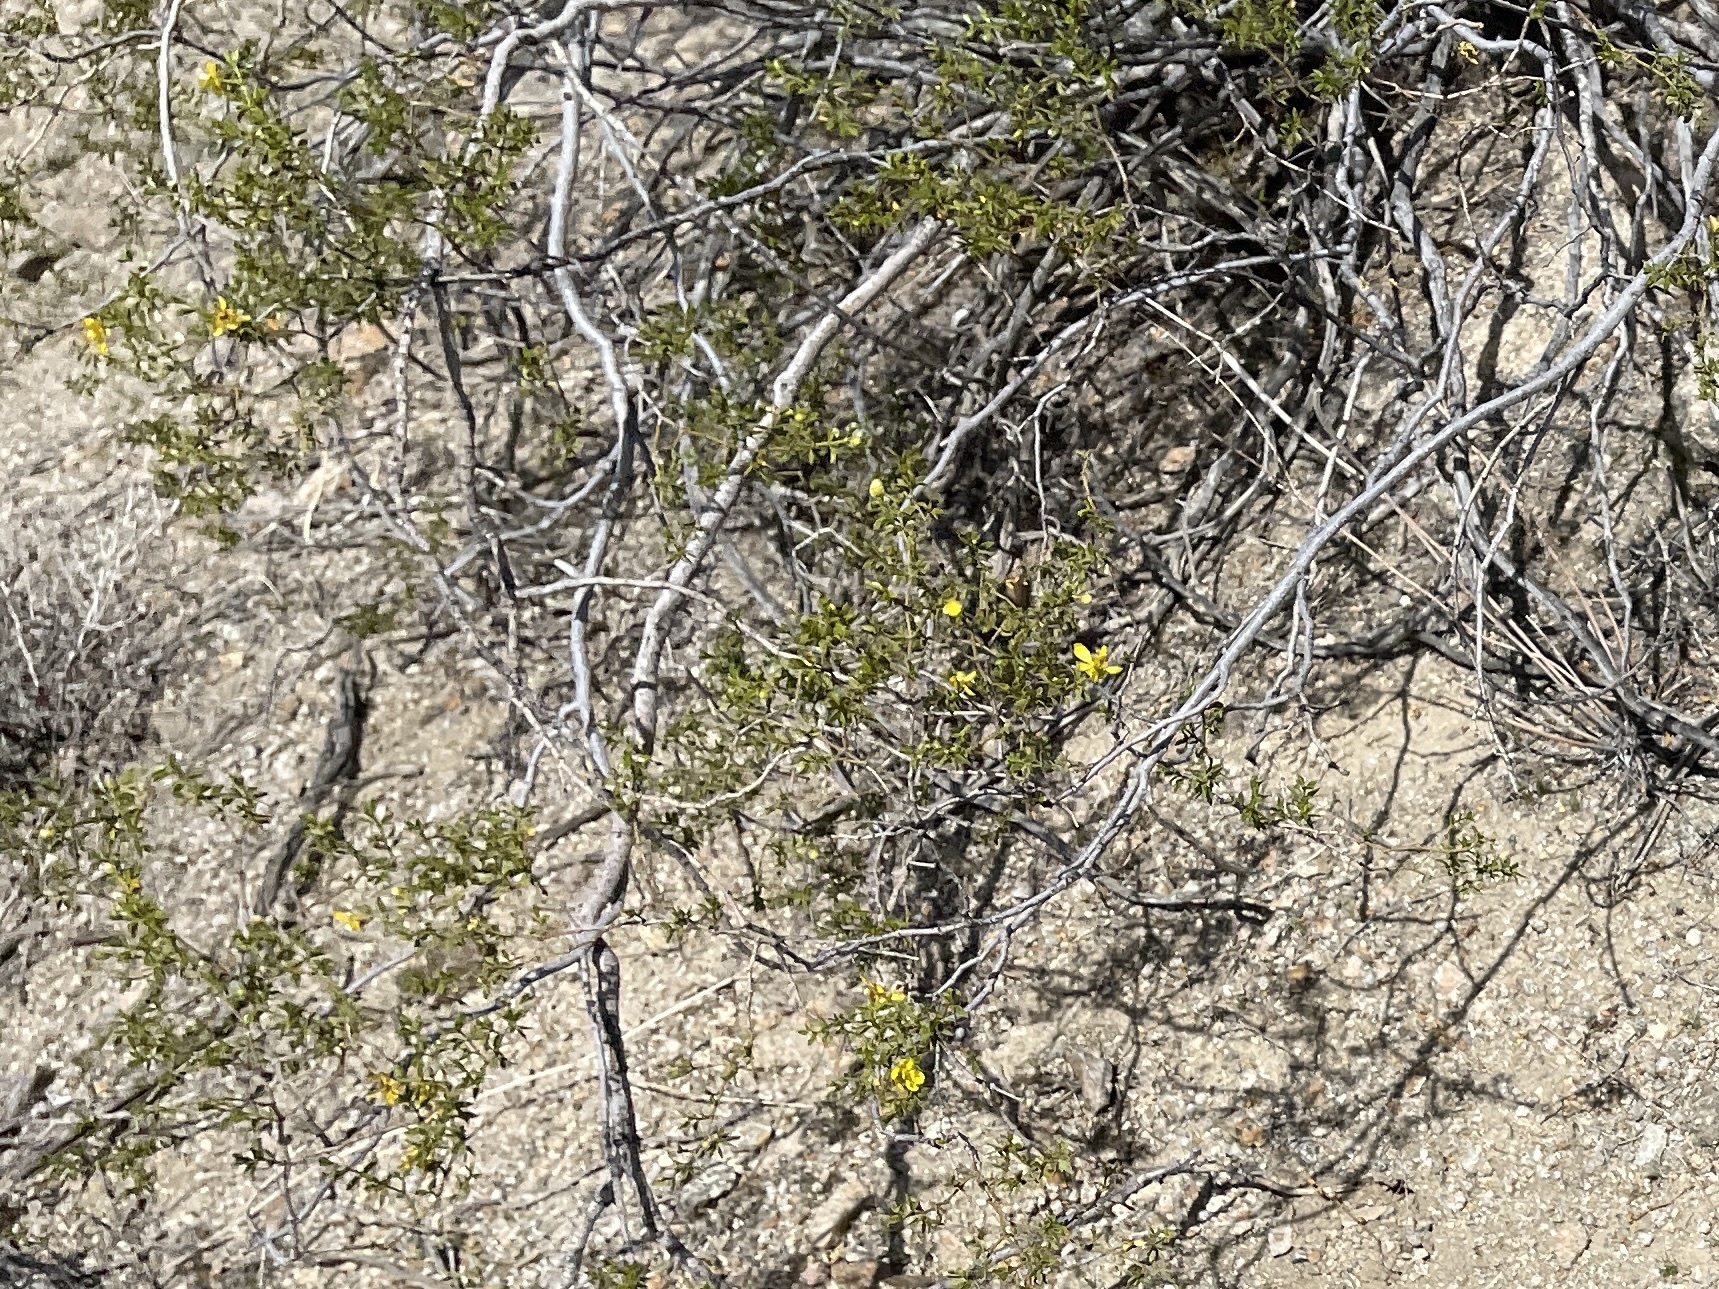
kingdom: Plantae
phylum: Tracheophyta
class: Magnoliopsida
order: Zygophyllales
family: Zygophyllaceae
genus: Larrea
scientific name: Larrea tridentata
